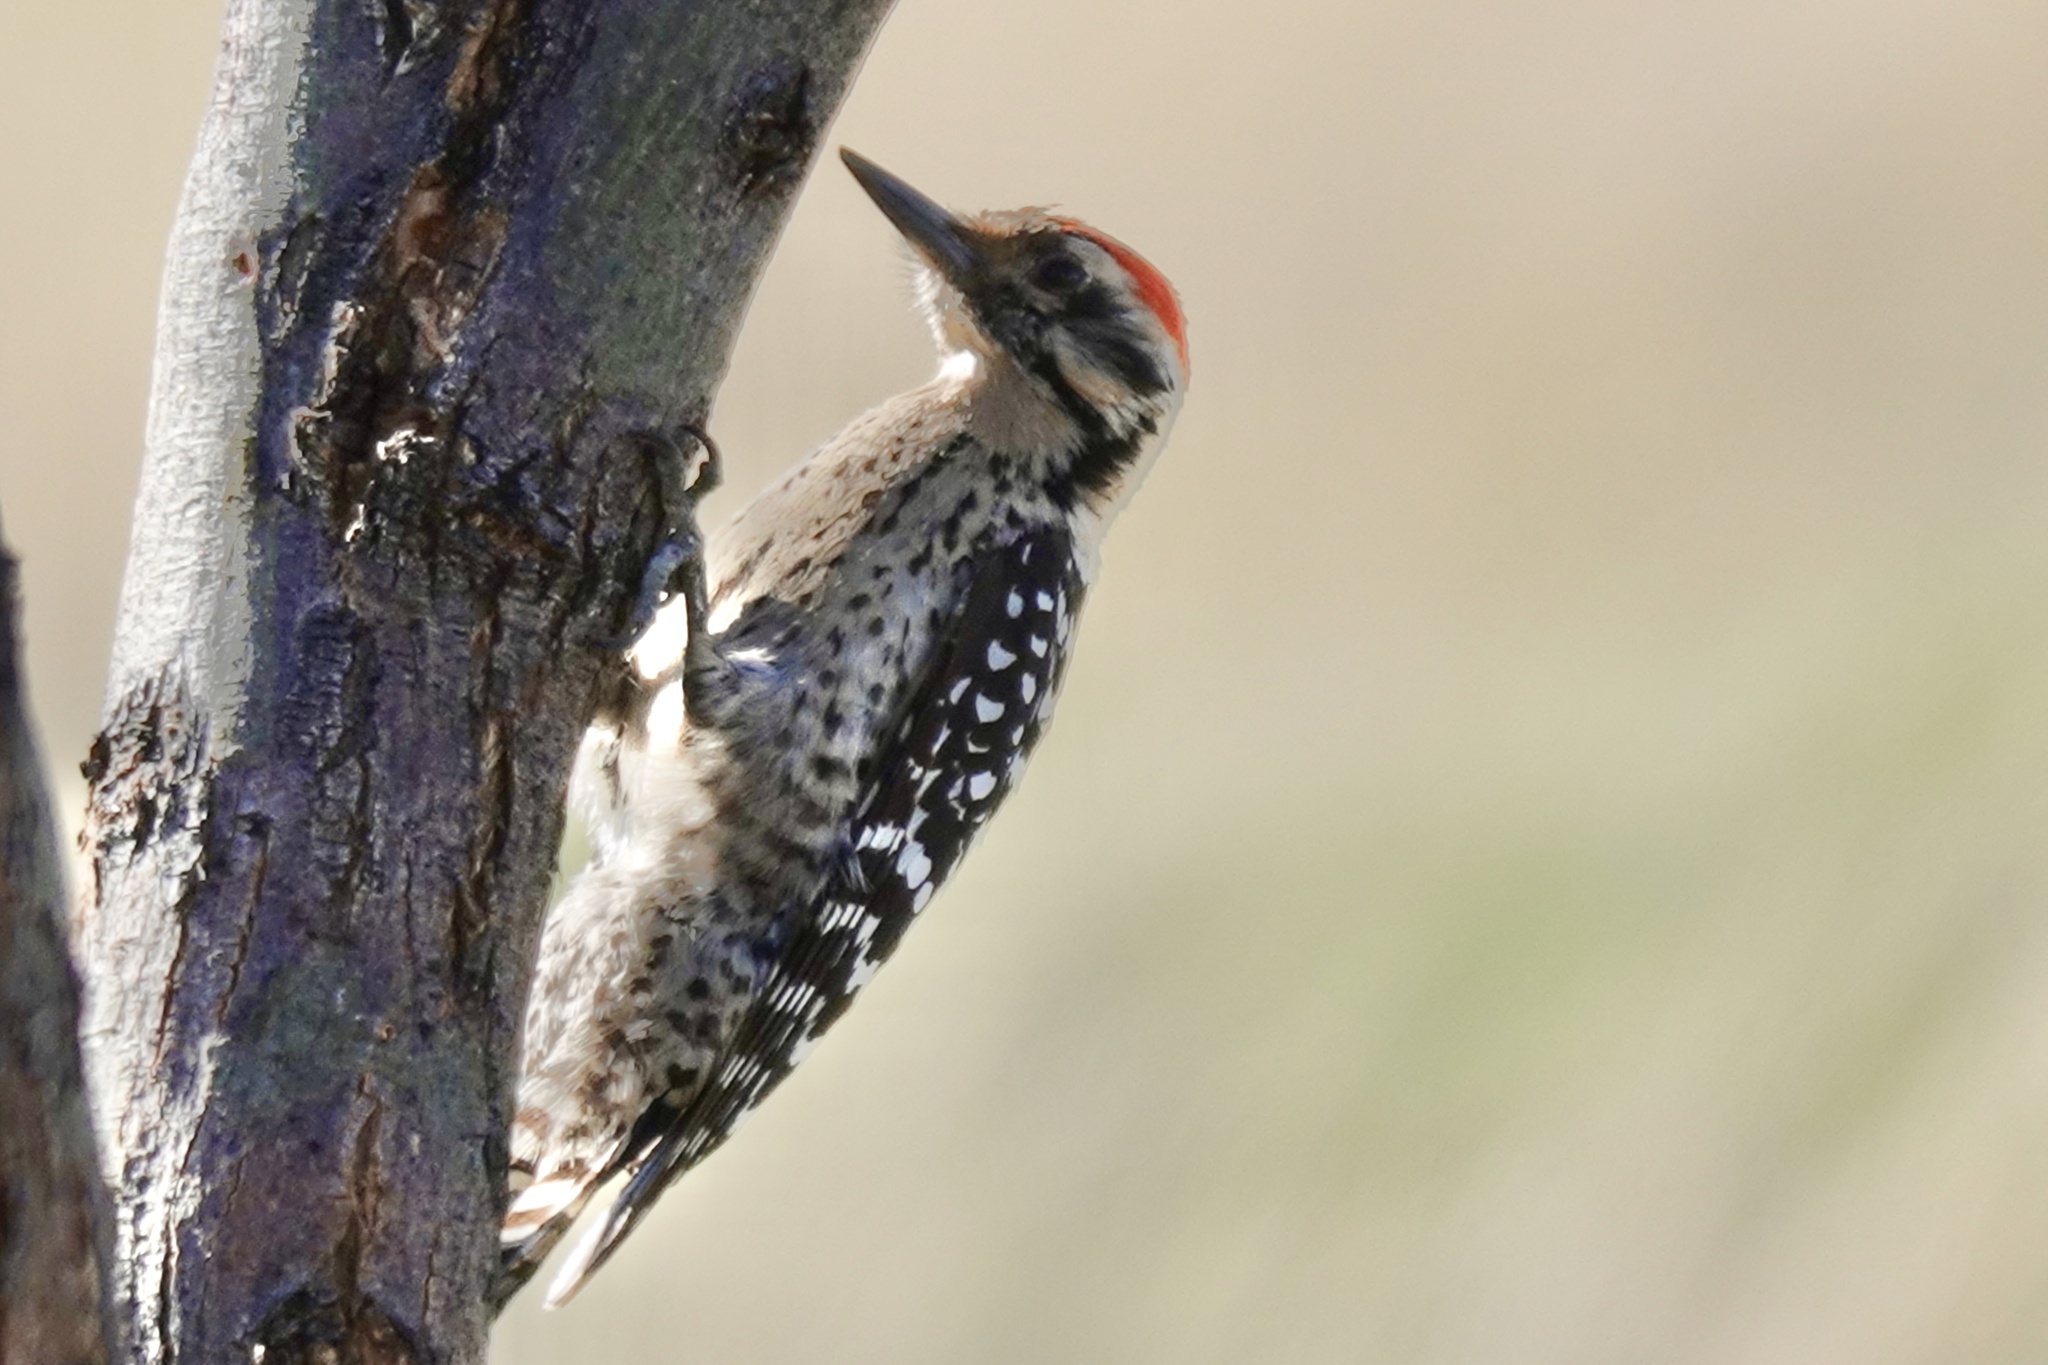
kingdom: Animalia
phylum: Chordata
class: Aves
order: Piciformes
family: Picidae
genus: Dryobates
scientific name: Dryobates scalaris
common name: Ladder-backed woodpecker
